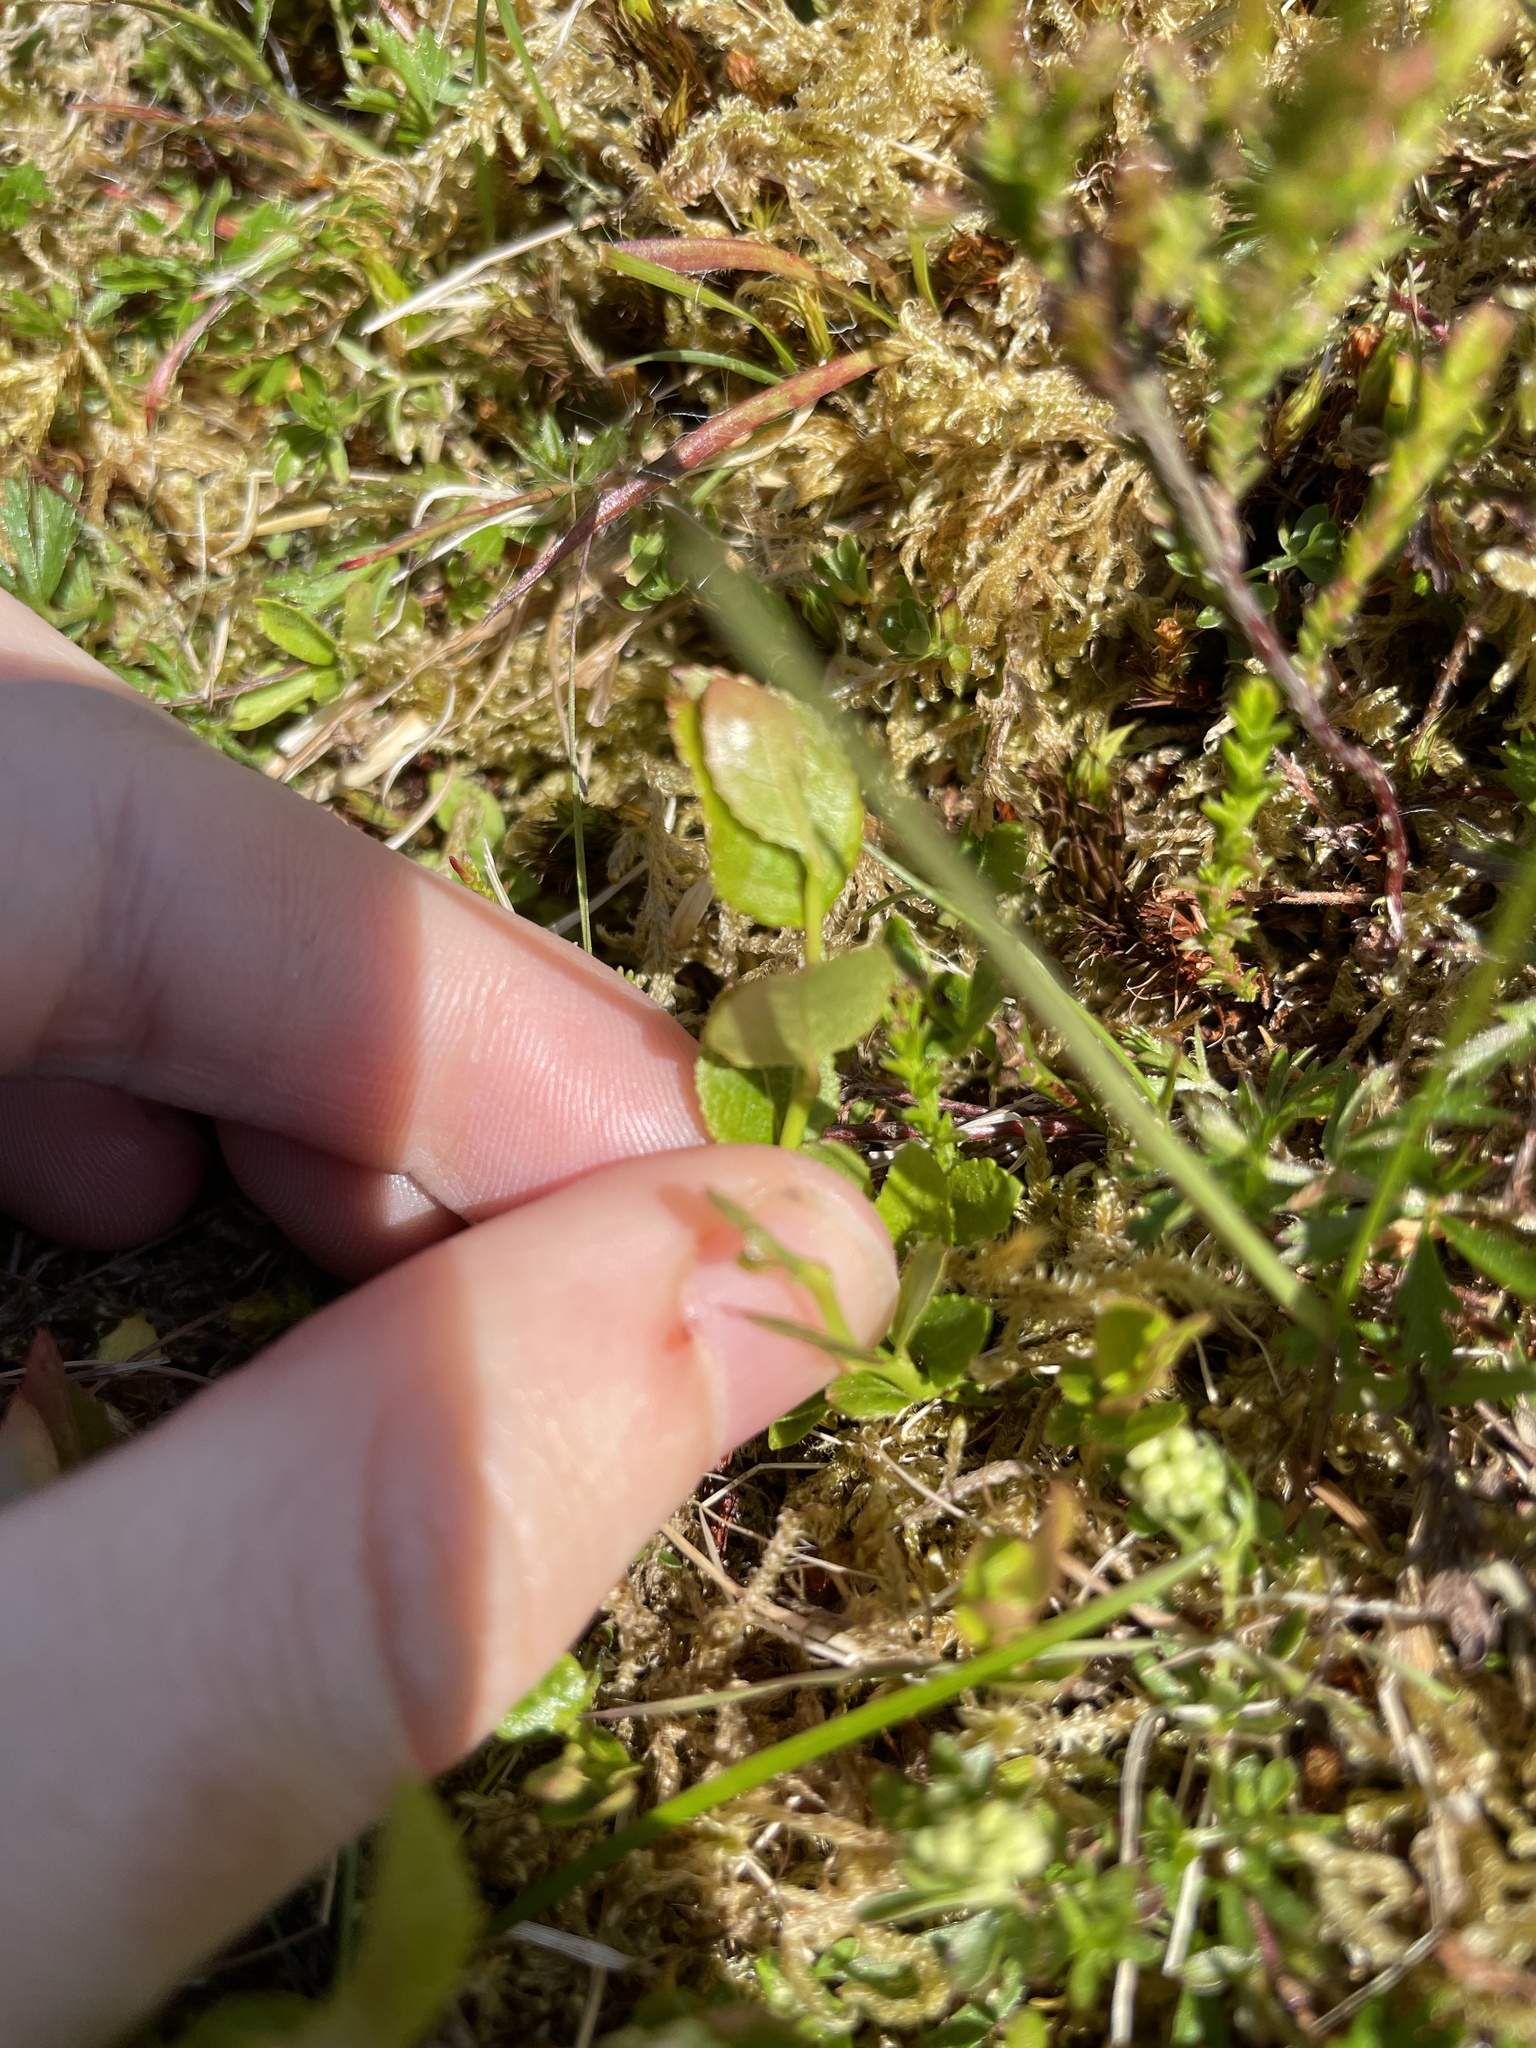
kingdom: Plantae
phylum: Tracheophyta
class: Magnoliopsida
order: Ericales
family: Ericaceae
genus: Vaccinium
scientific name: Vaccinium myrtillus
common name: Bilberry
